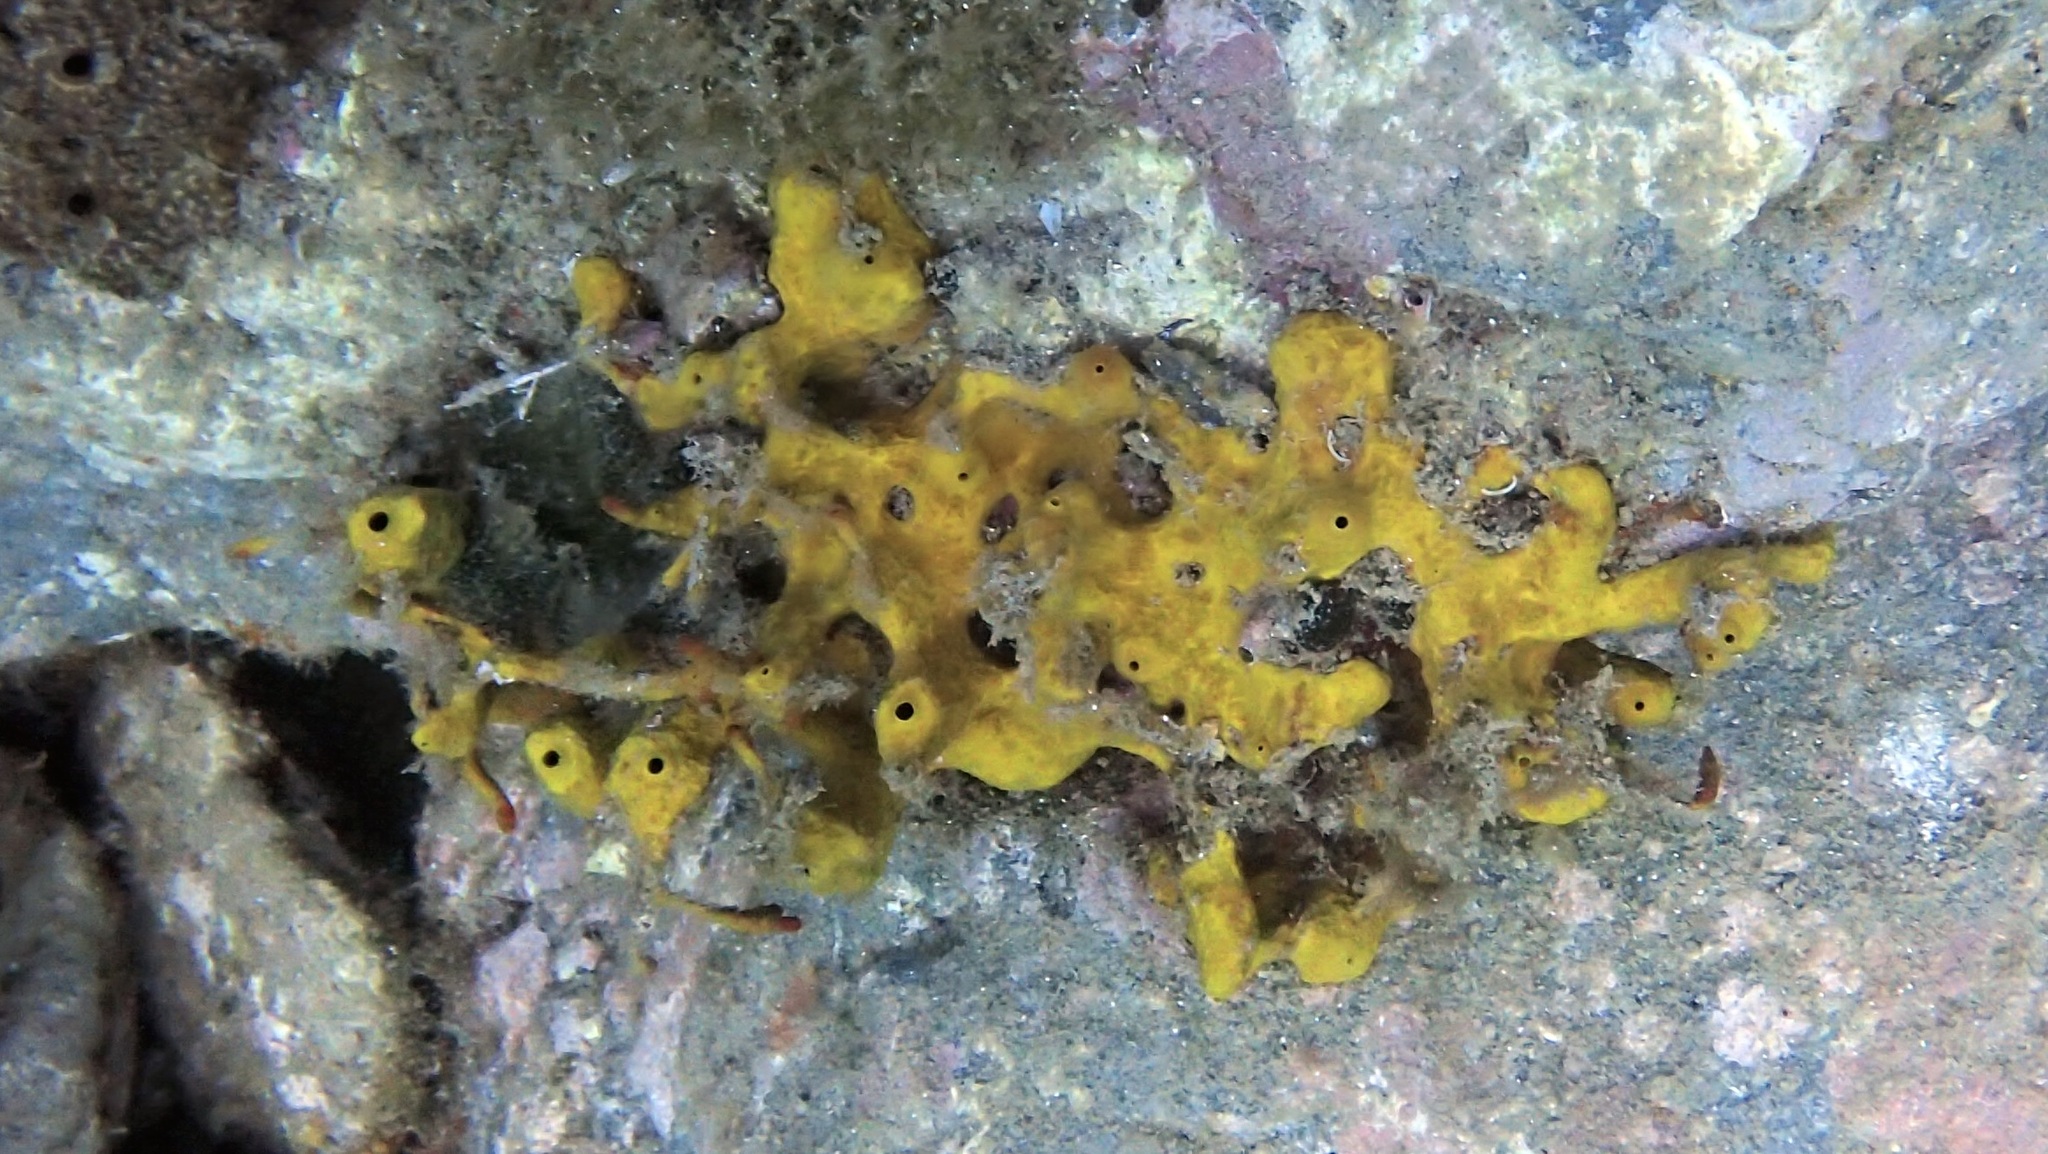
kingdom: Animalia
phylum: Porifera
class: Demospongiae
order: Verongiida
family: Aplysinidae
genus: Aplysina
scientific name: Aplysina aerophoba
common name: Aureate sponge
